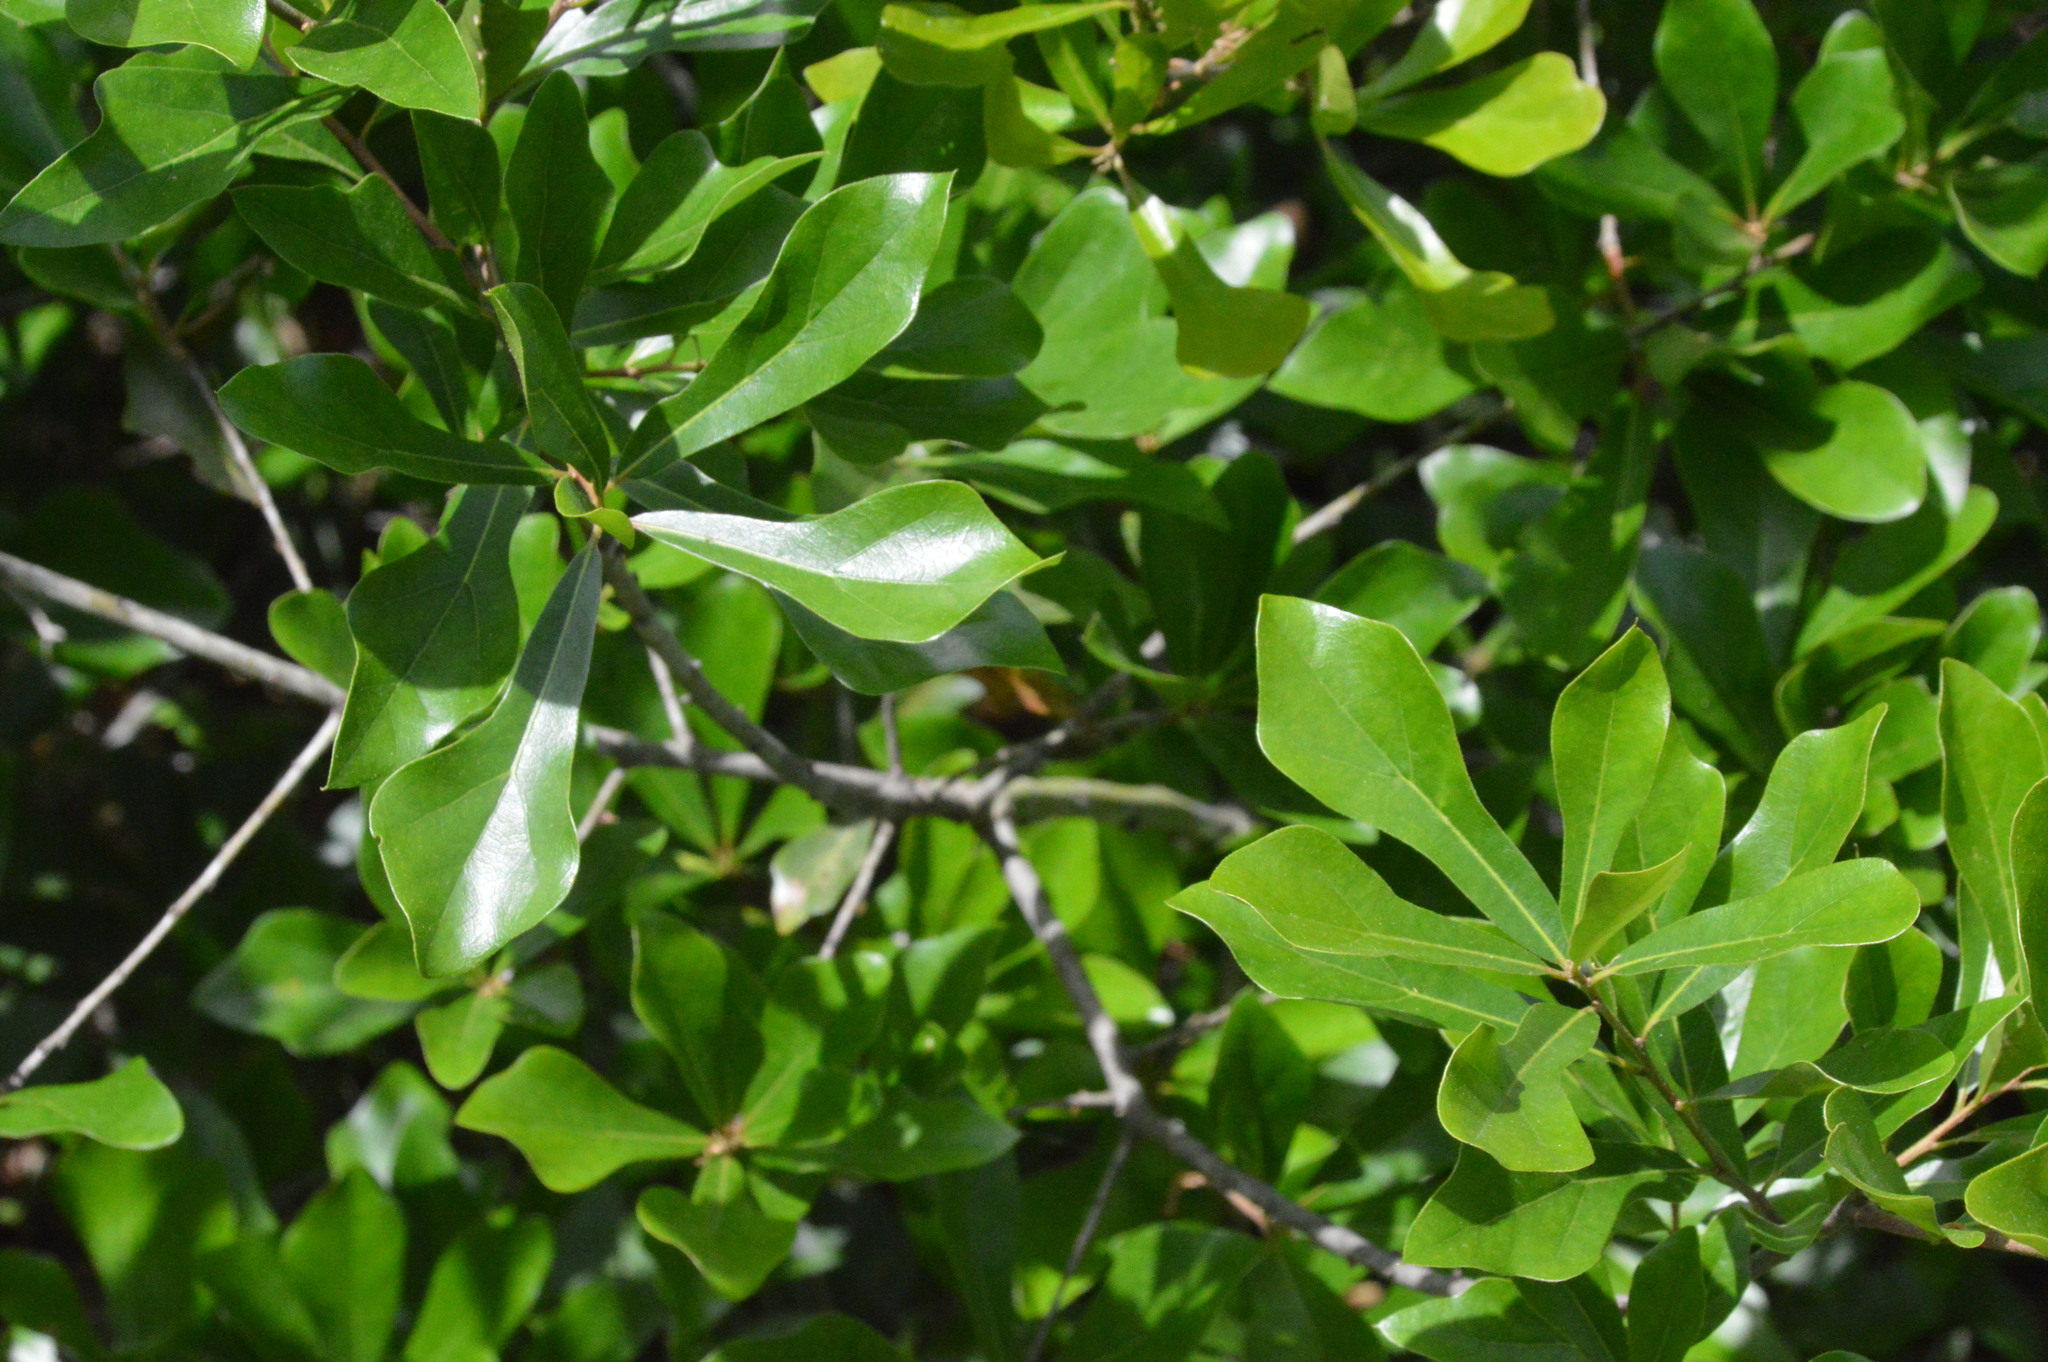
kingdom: Plantae
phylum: Tracheophyta
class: Magnoliopsida
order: Fagales
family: Fagaceae
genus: Quercus
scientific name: Quercus nigra
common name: Water oak
